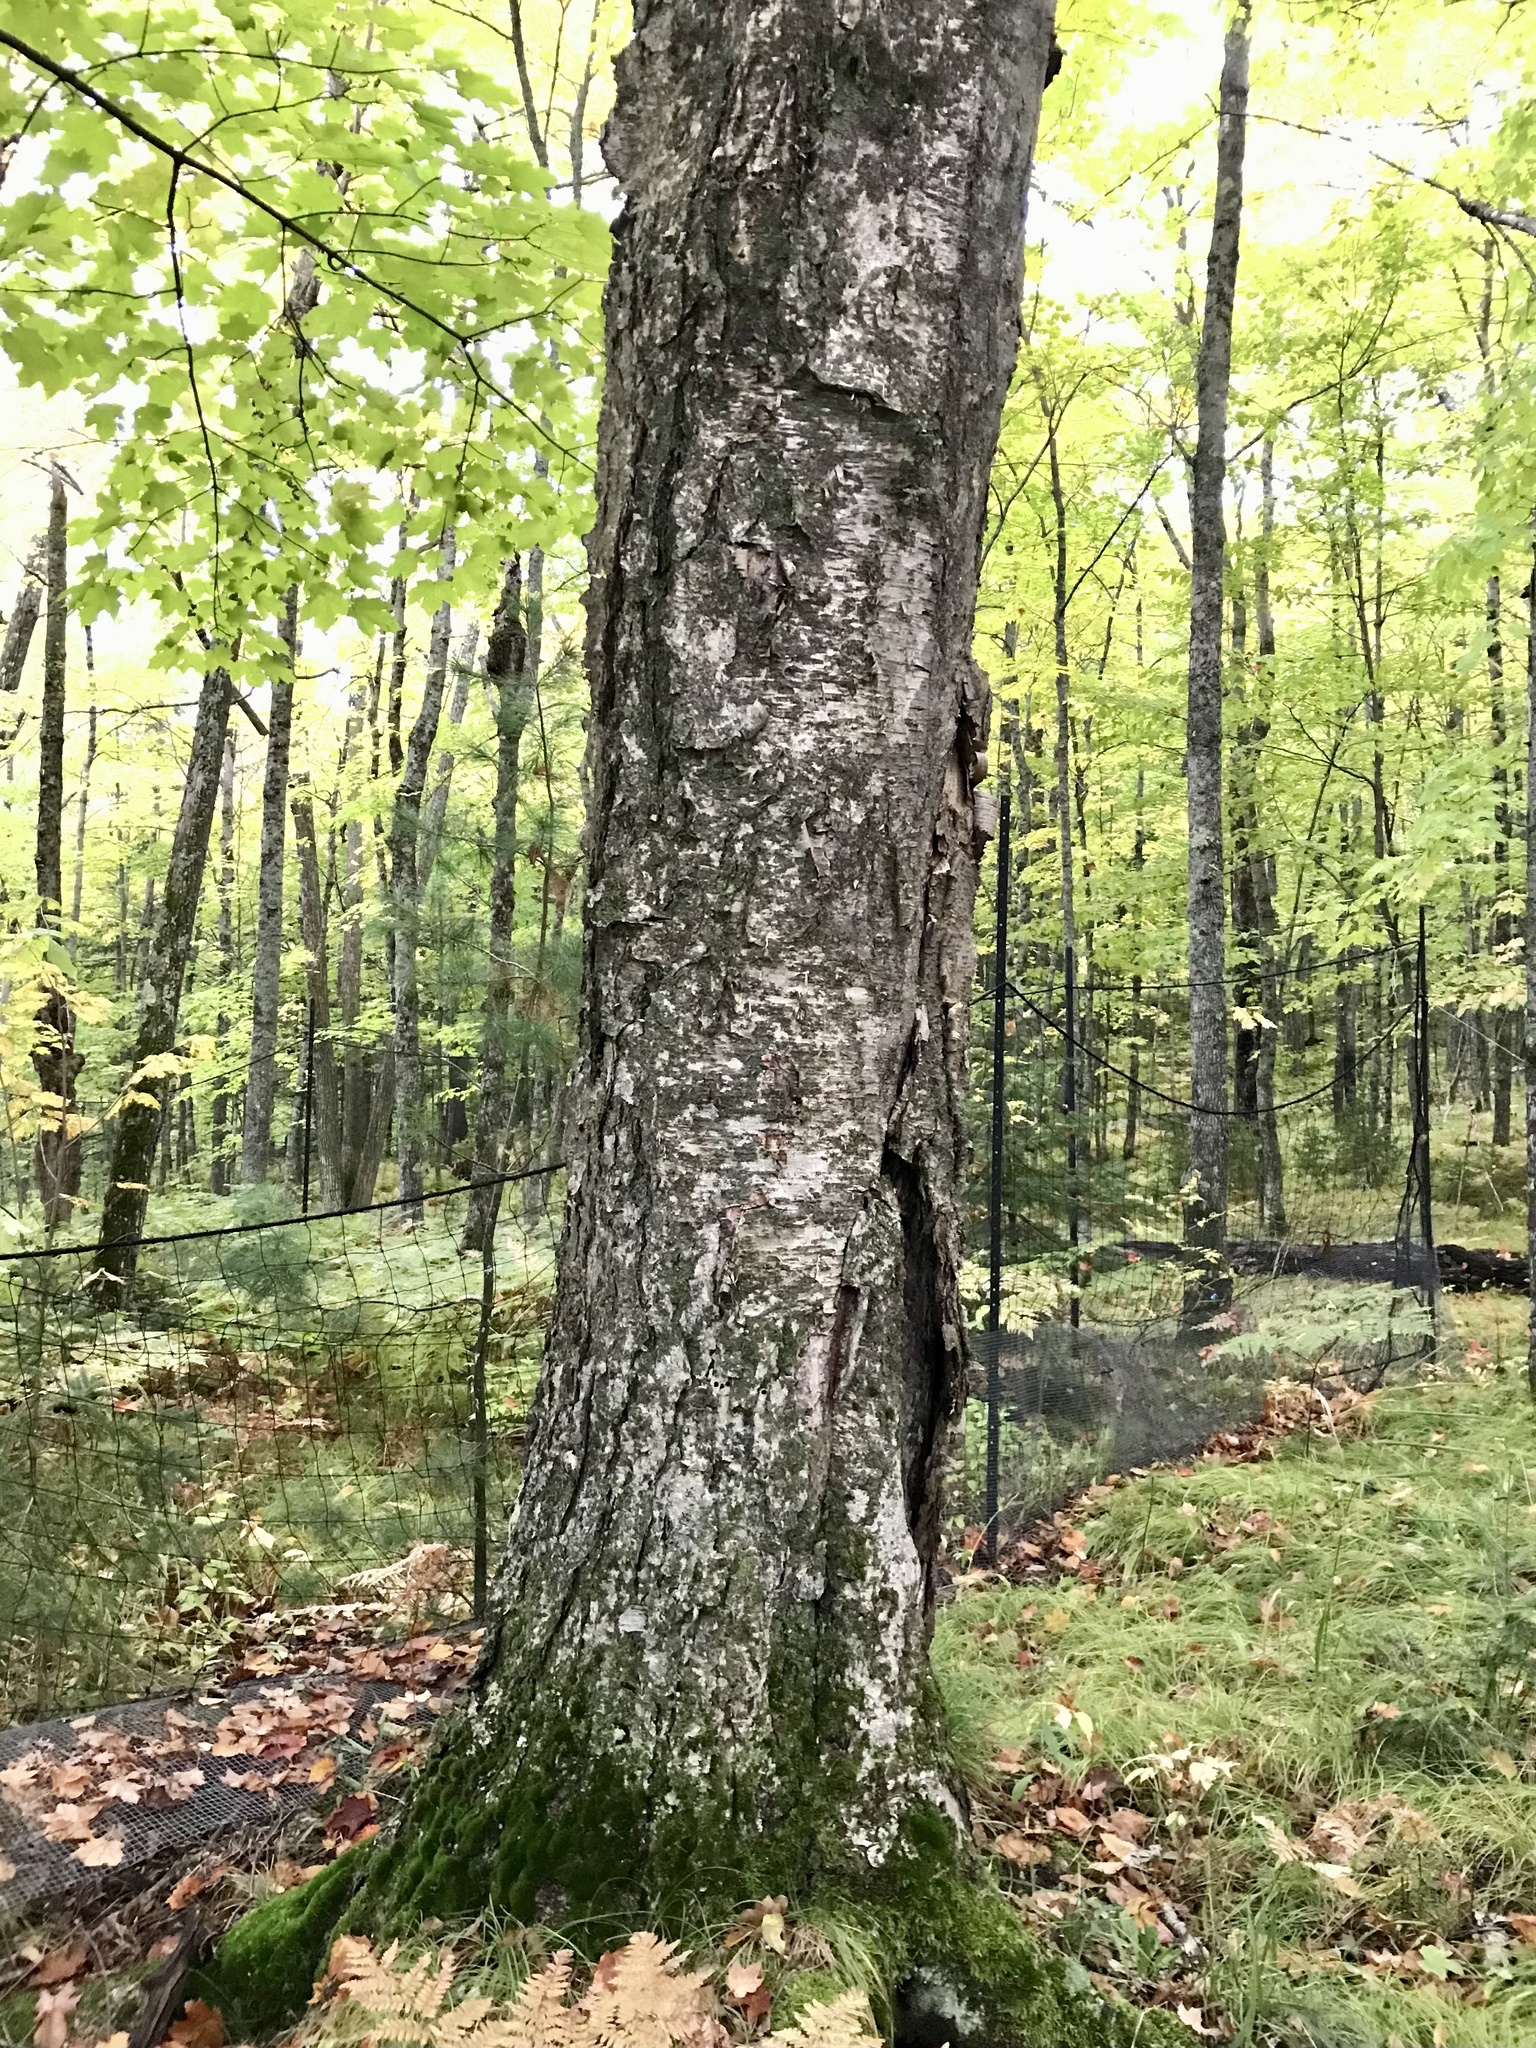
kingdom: Plantae
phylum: Tracheophyta
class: Magnoliopsida
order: Fagales
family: Betulaceae
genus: Betula
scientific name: Betula alleghaniensis
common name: Yellow birch
